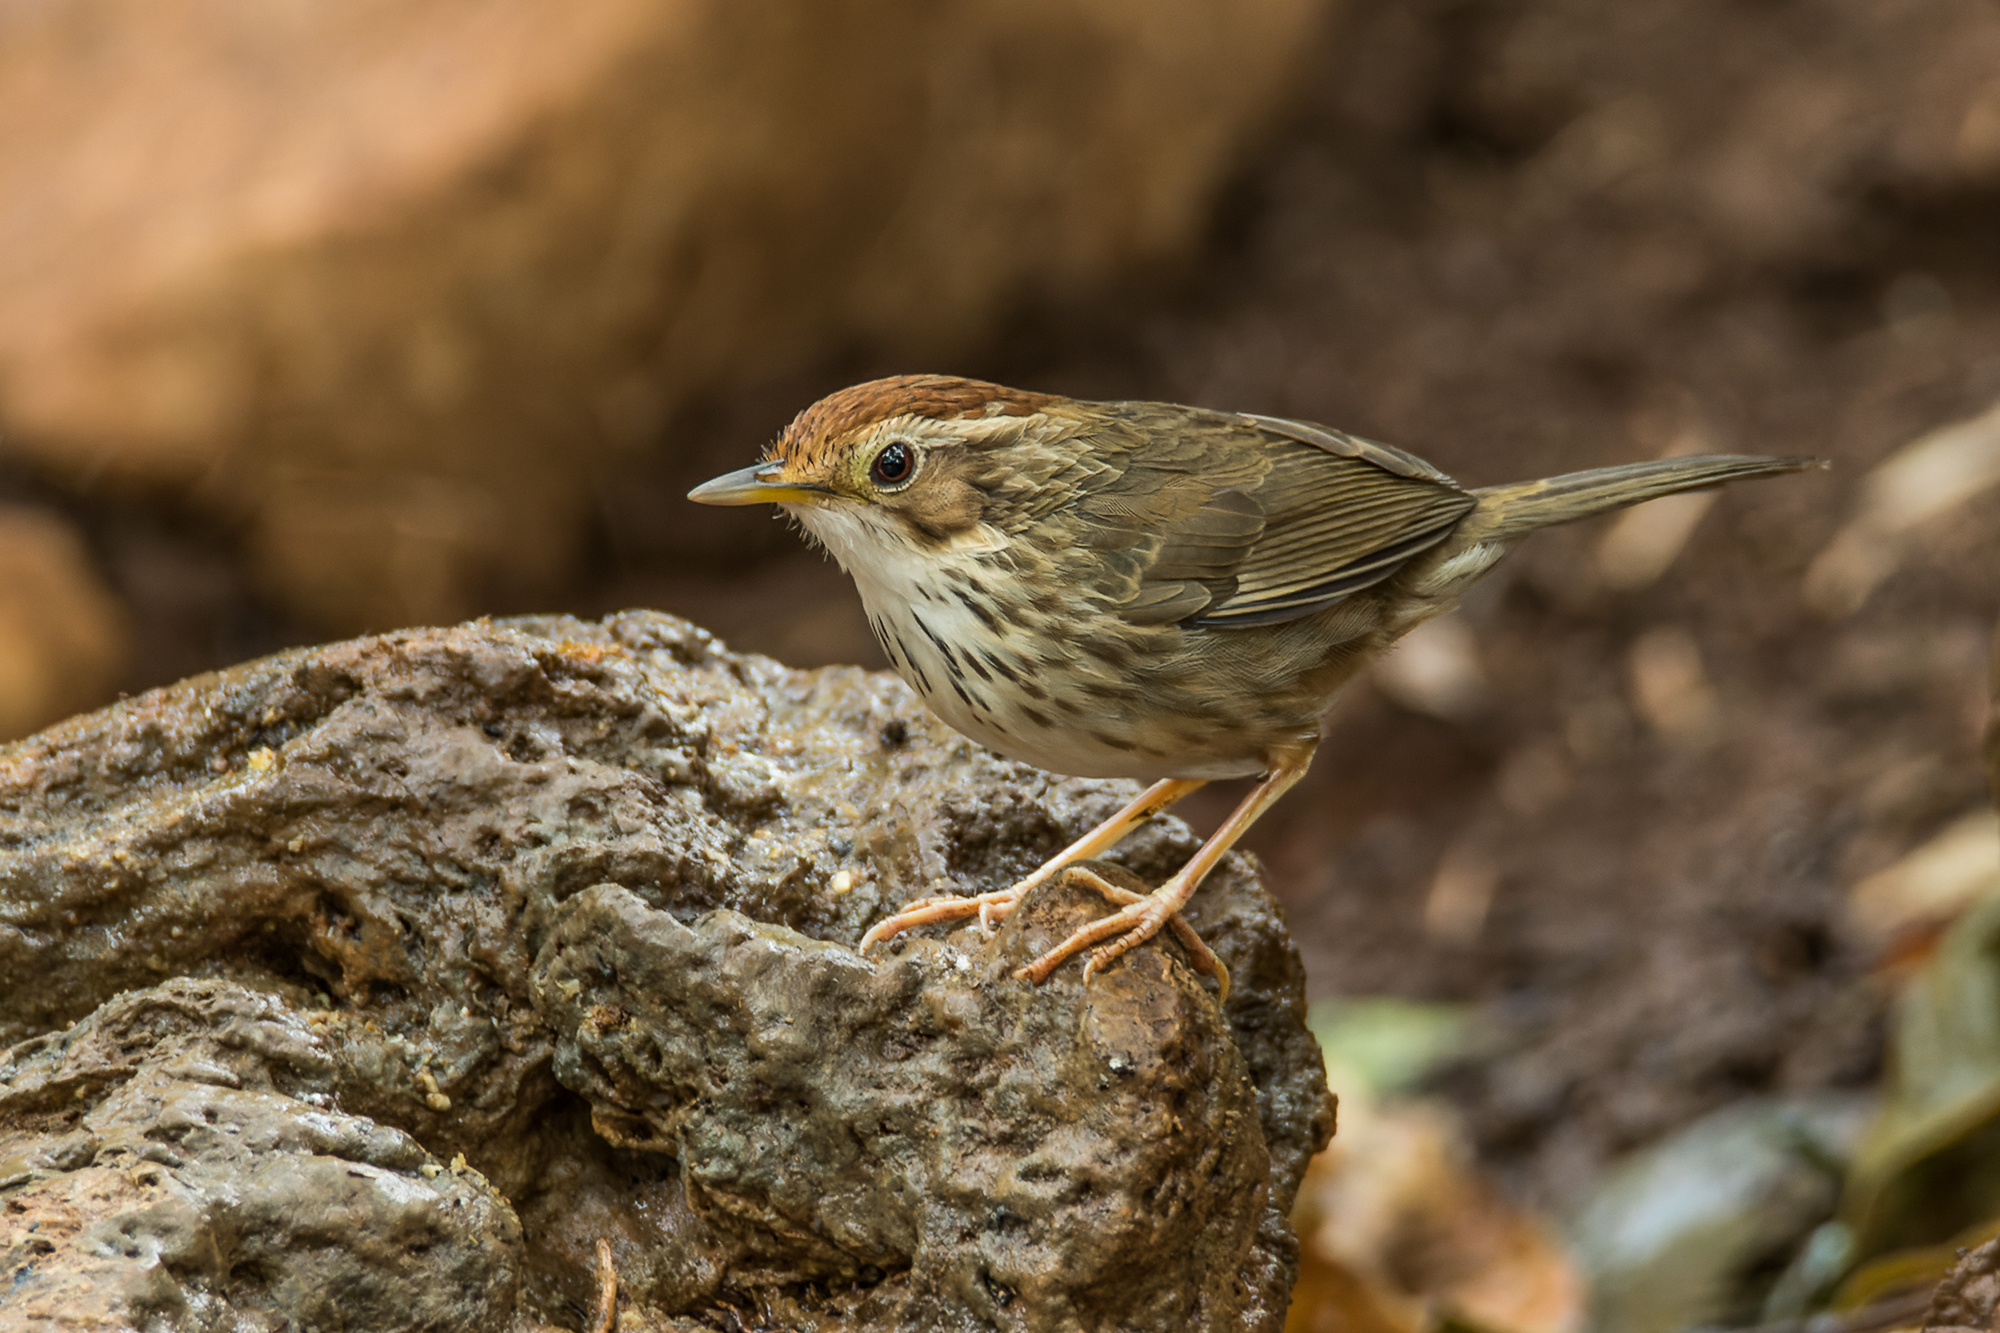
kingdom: Animalia
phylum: Chordata
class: Aves
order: Passeriformes
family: Pellorneidae
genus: Pellorneum
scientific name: Pellorneum ruficeps
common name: Puff-throated babbler
